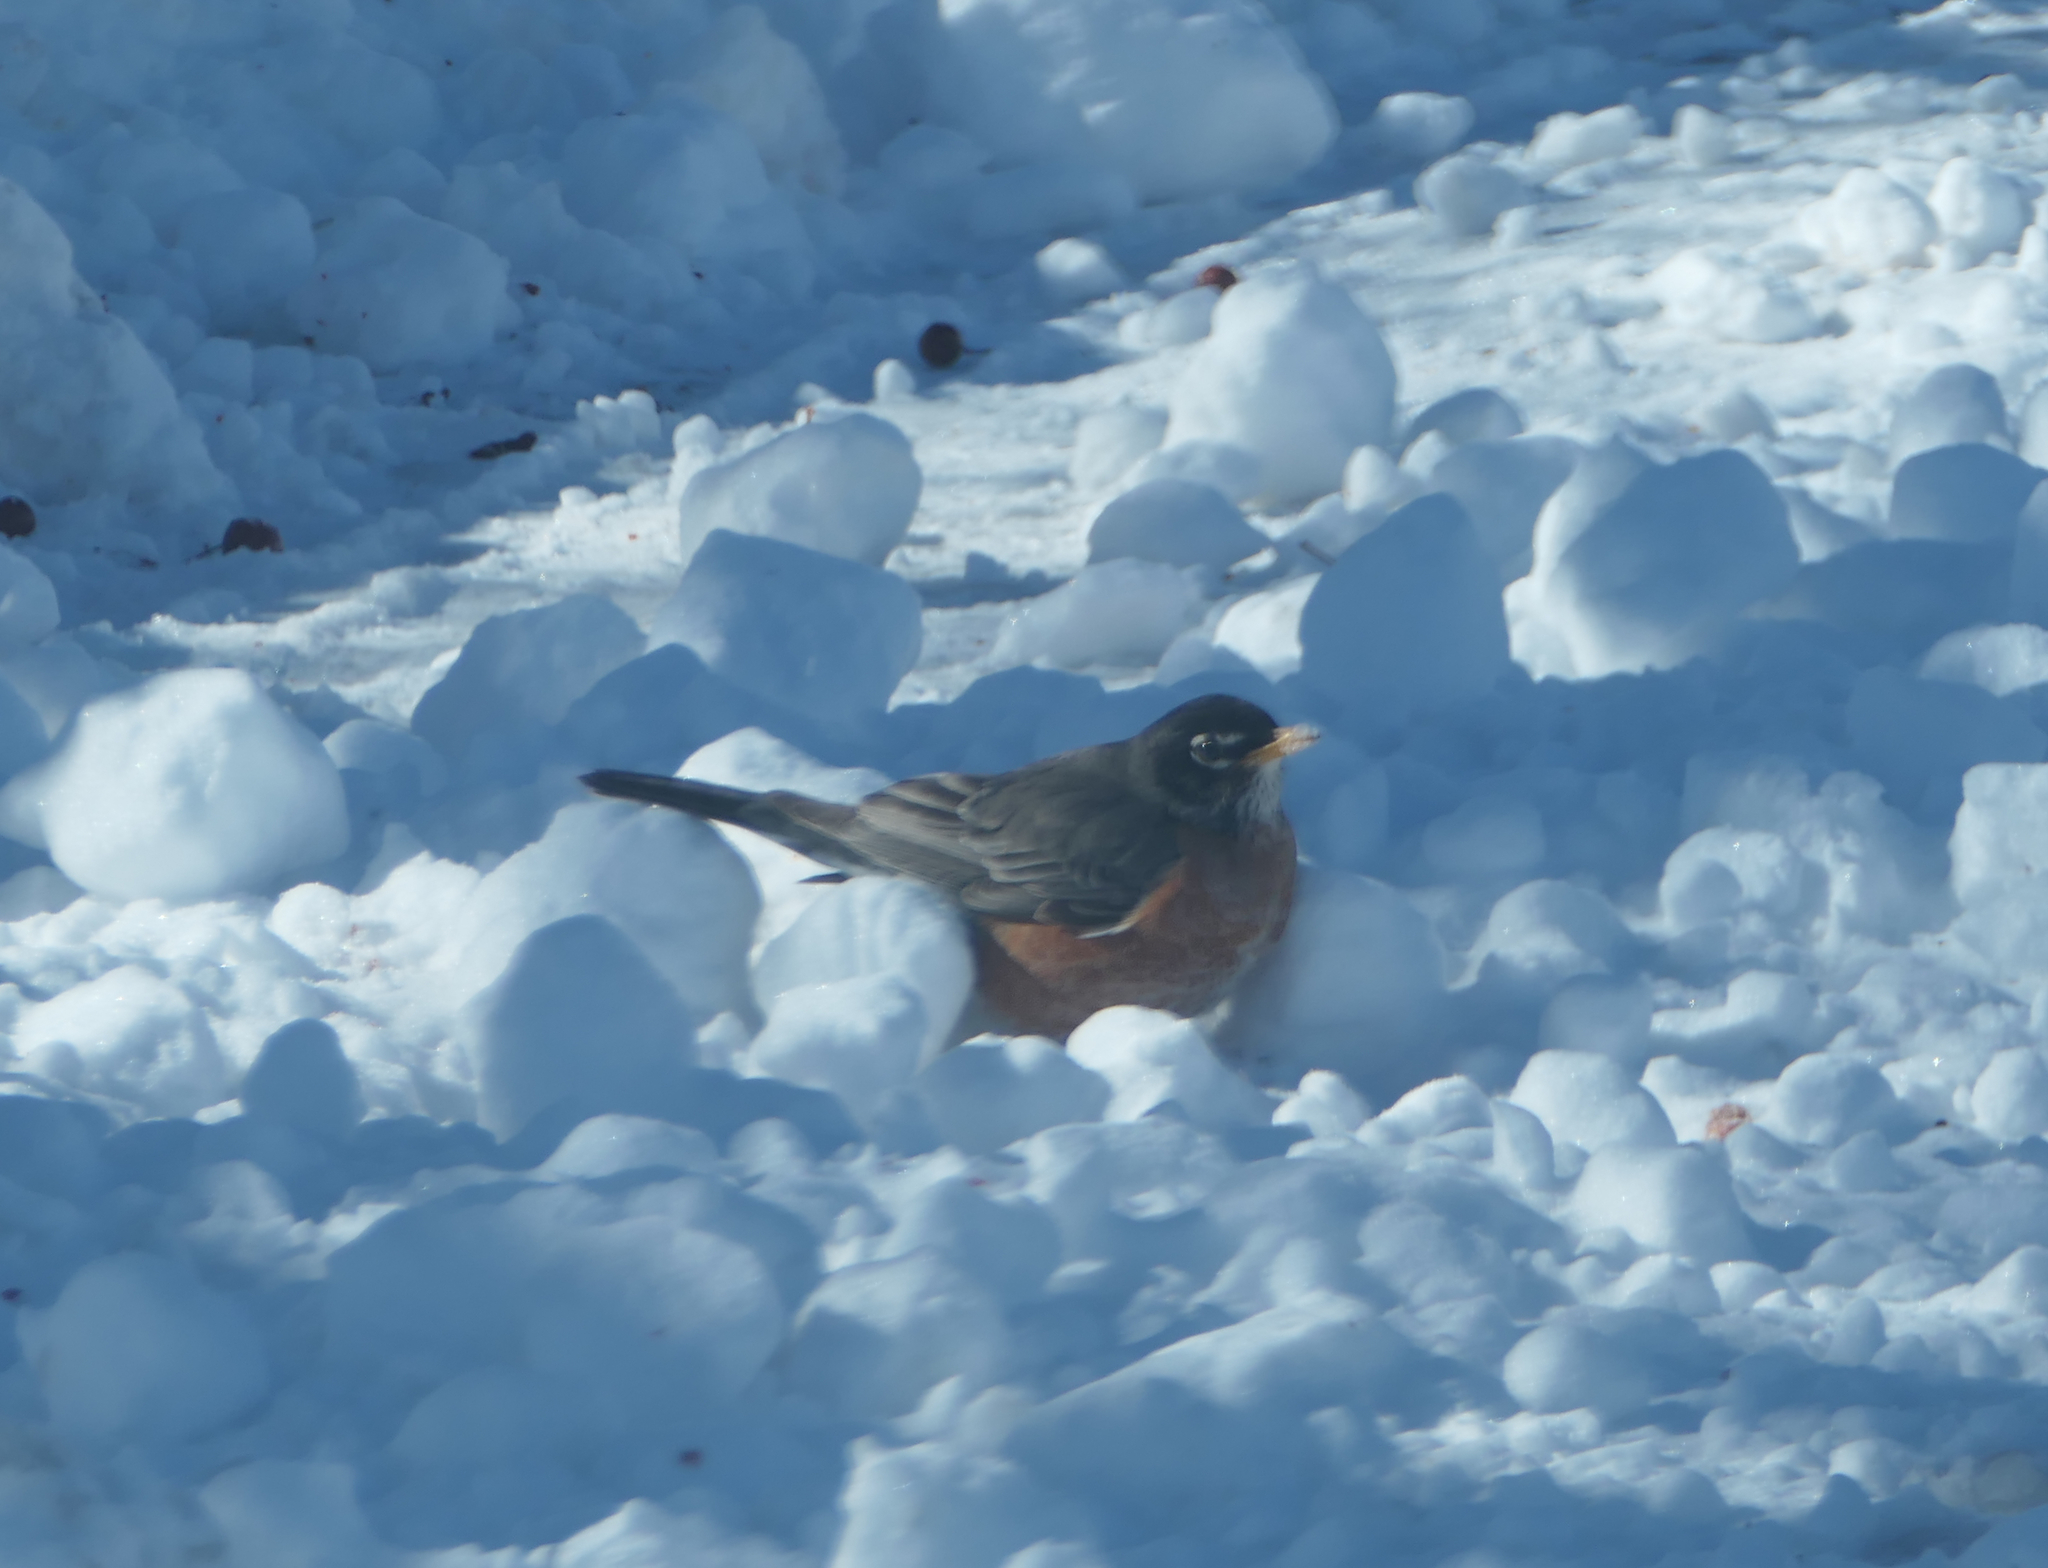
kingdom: Animalia
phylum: Chordata
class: Aves
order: Passeriformes
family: Turdidae
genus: Turdus
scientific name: Turdus migratorius
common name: American robin
